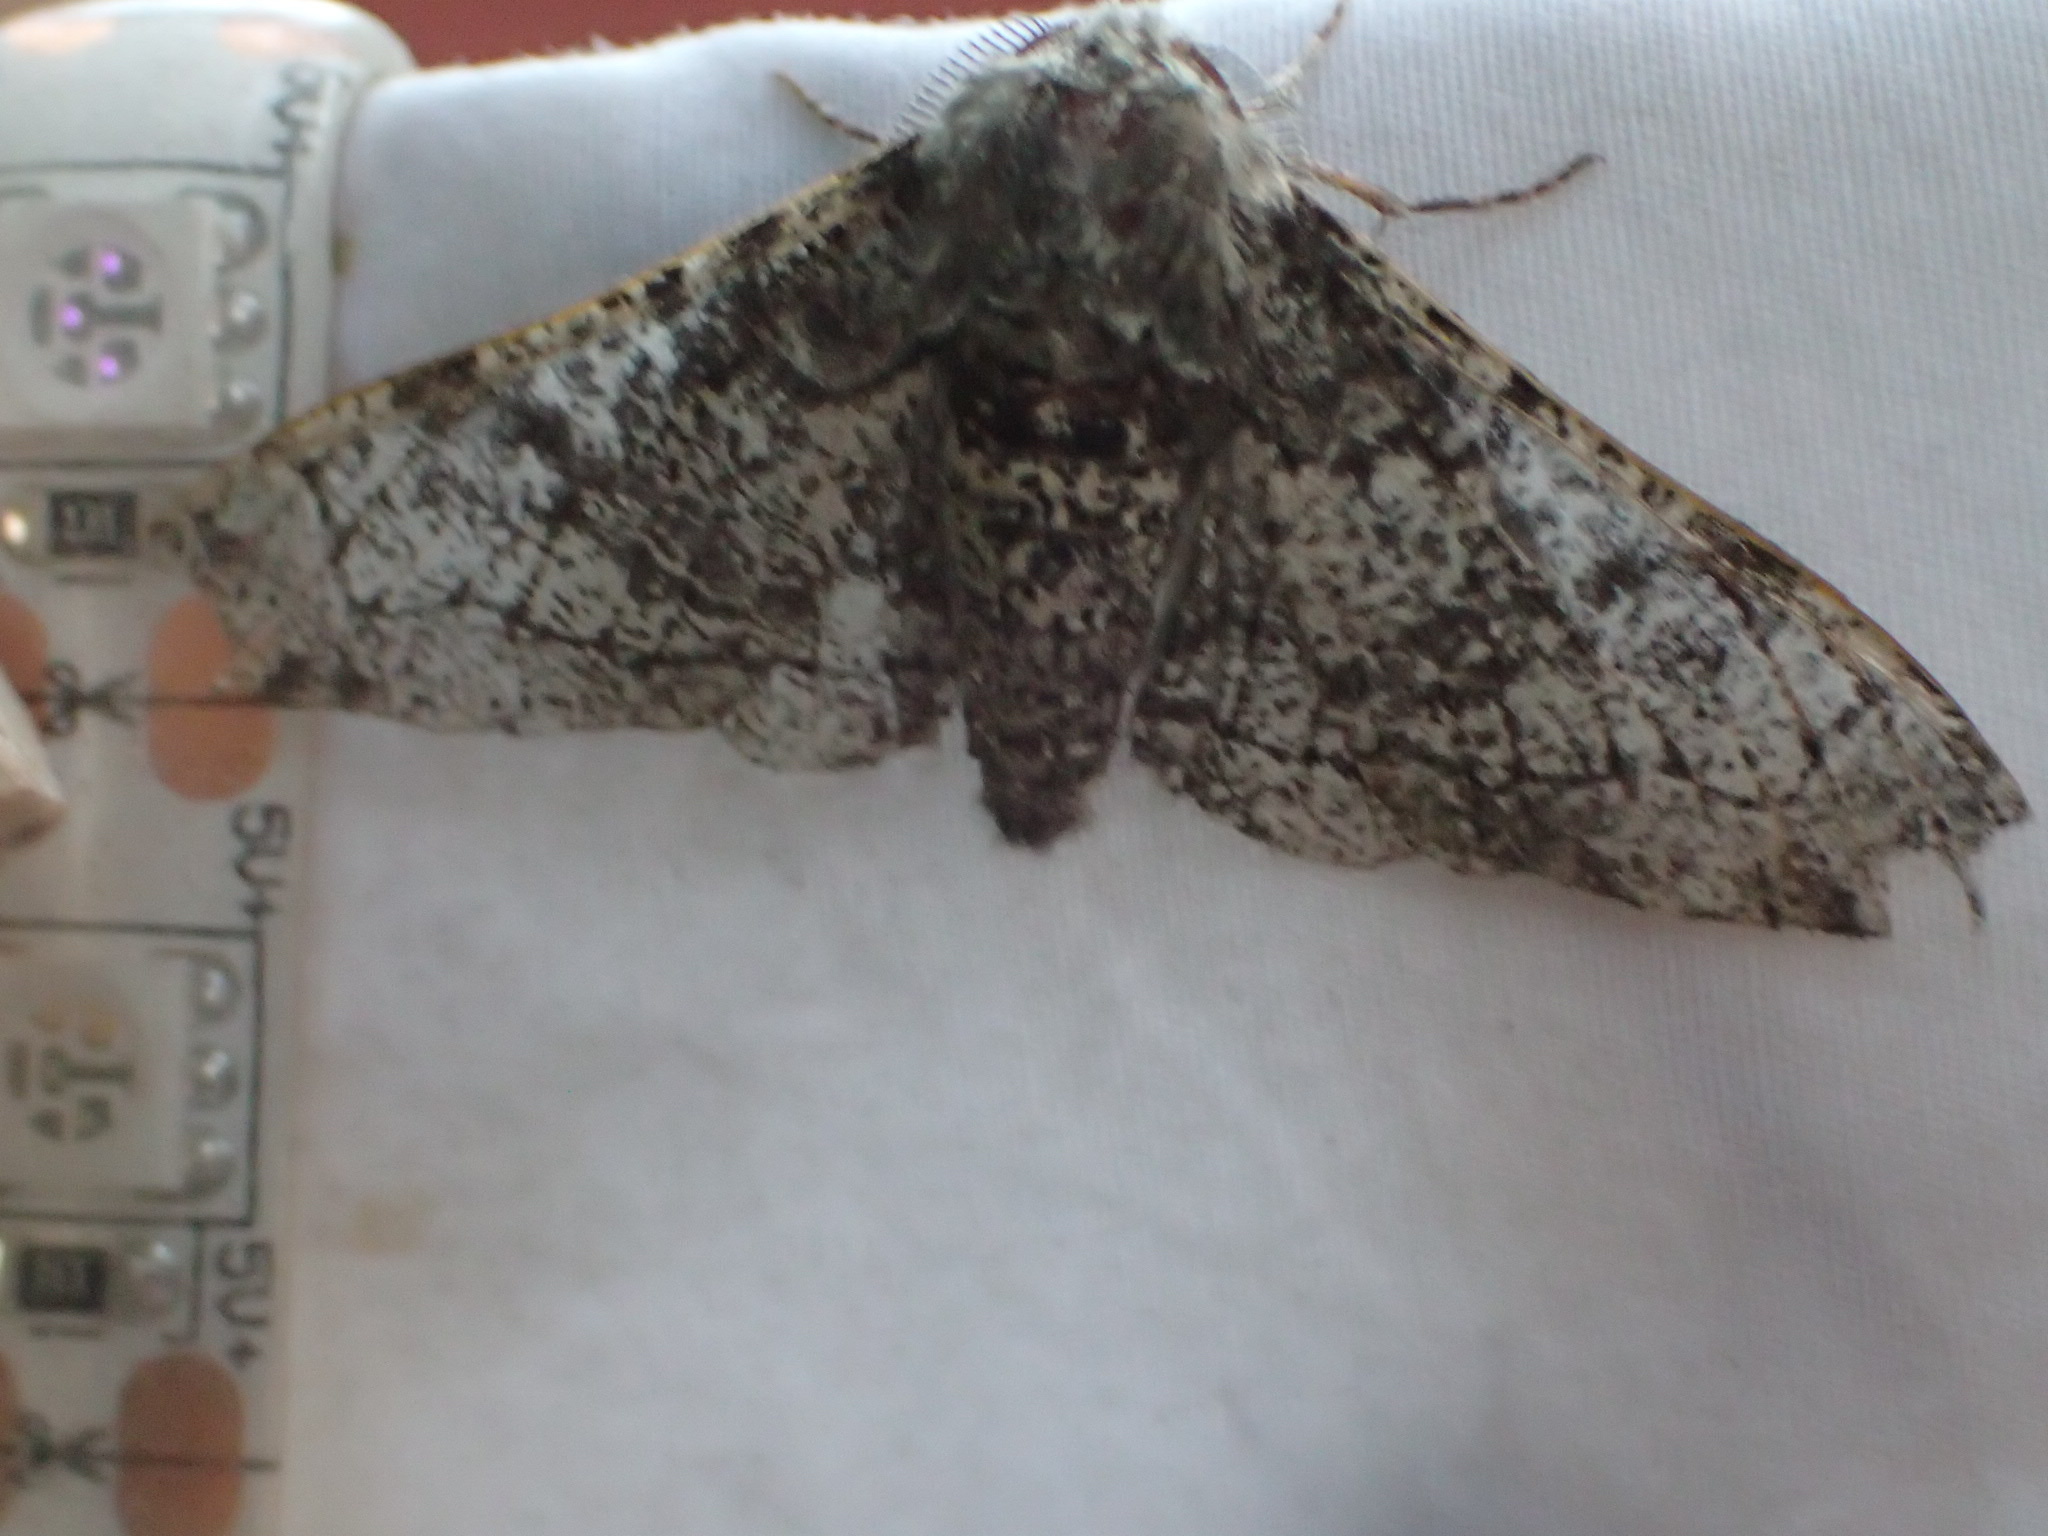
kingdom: Animalia
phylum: Arthropoda
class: Insecta
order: Lepidoptera
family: Geometridae
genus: Biston
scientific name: Biston betularia
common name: Peppered moth
